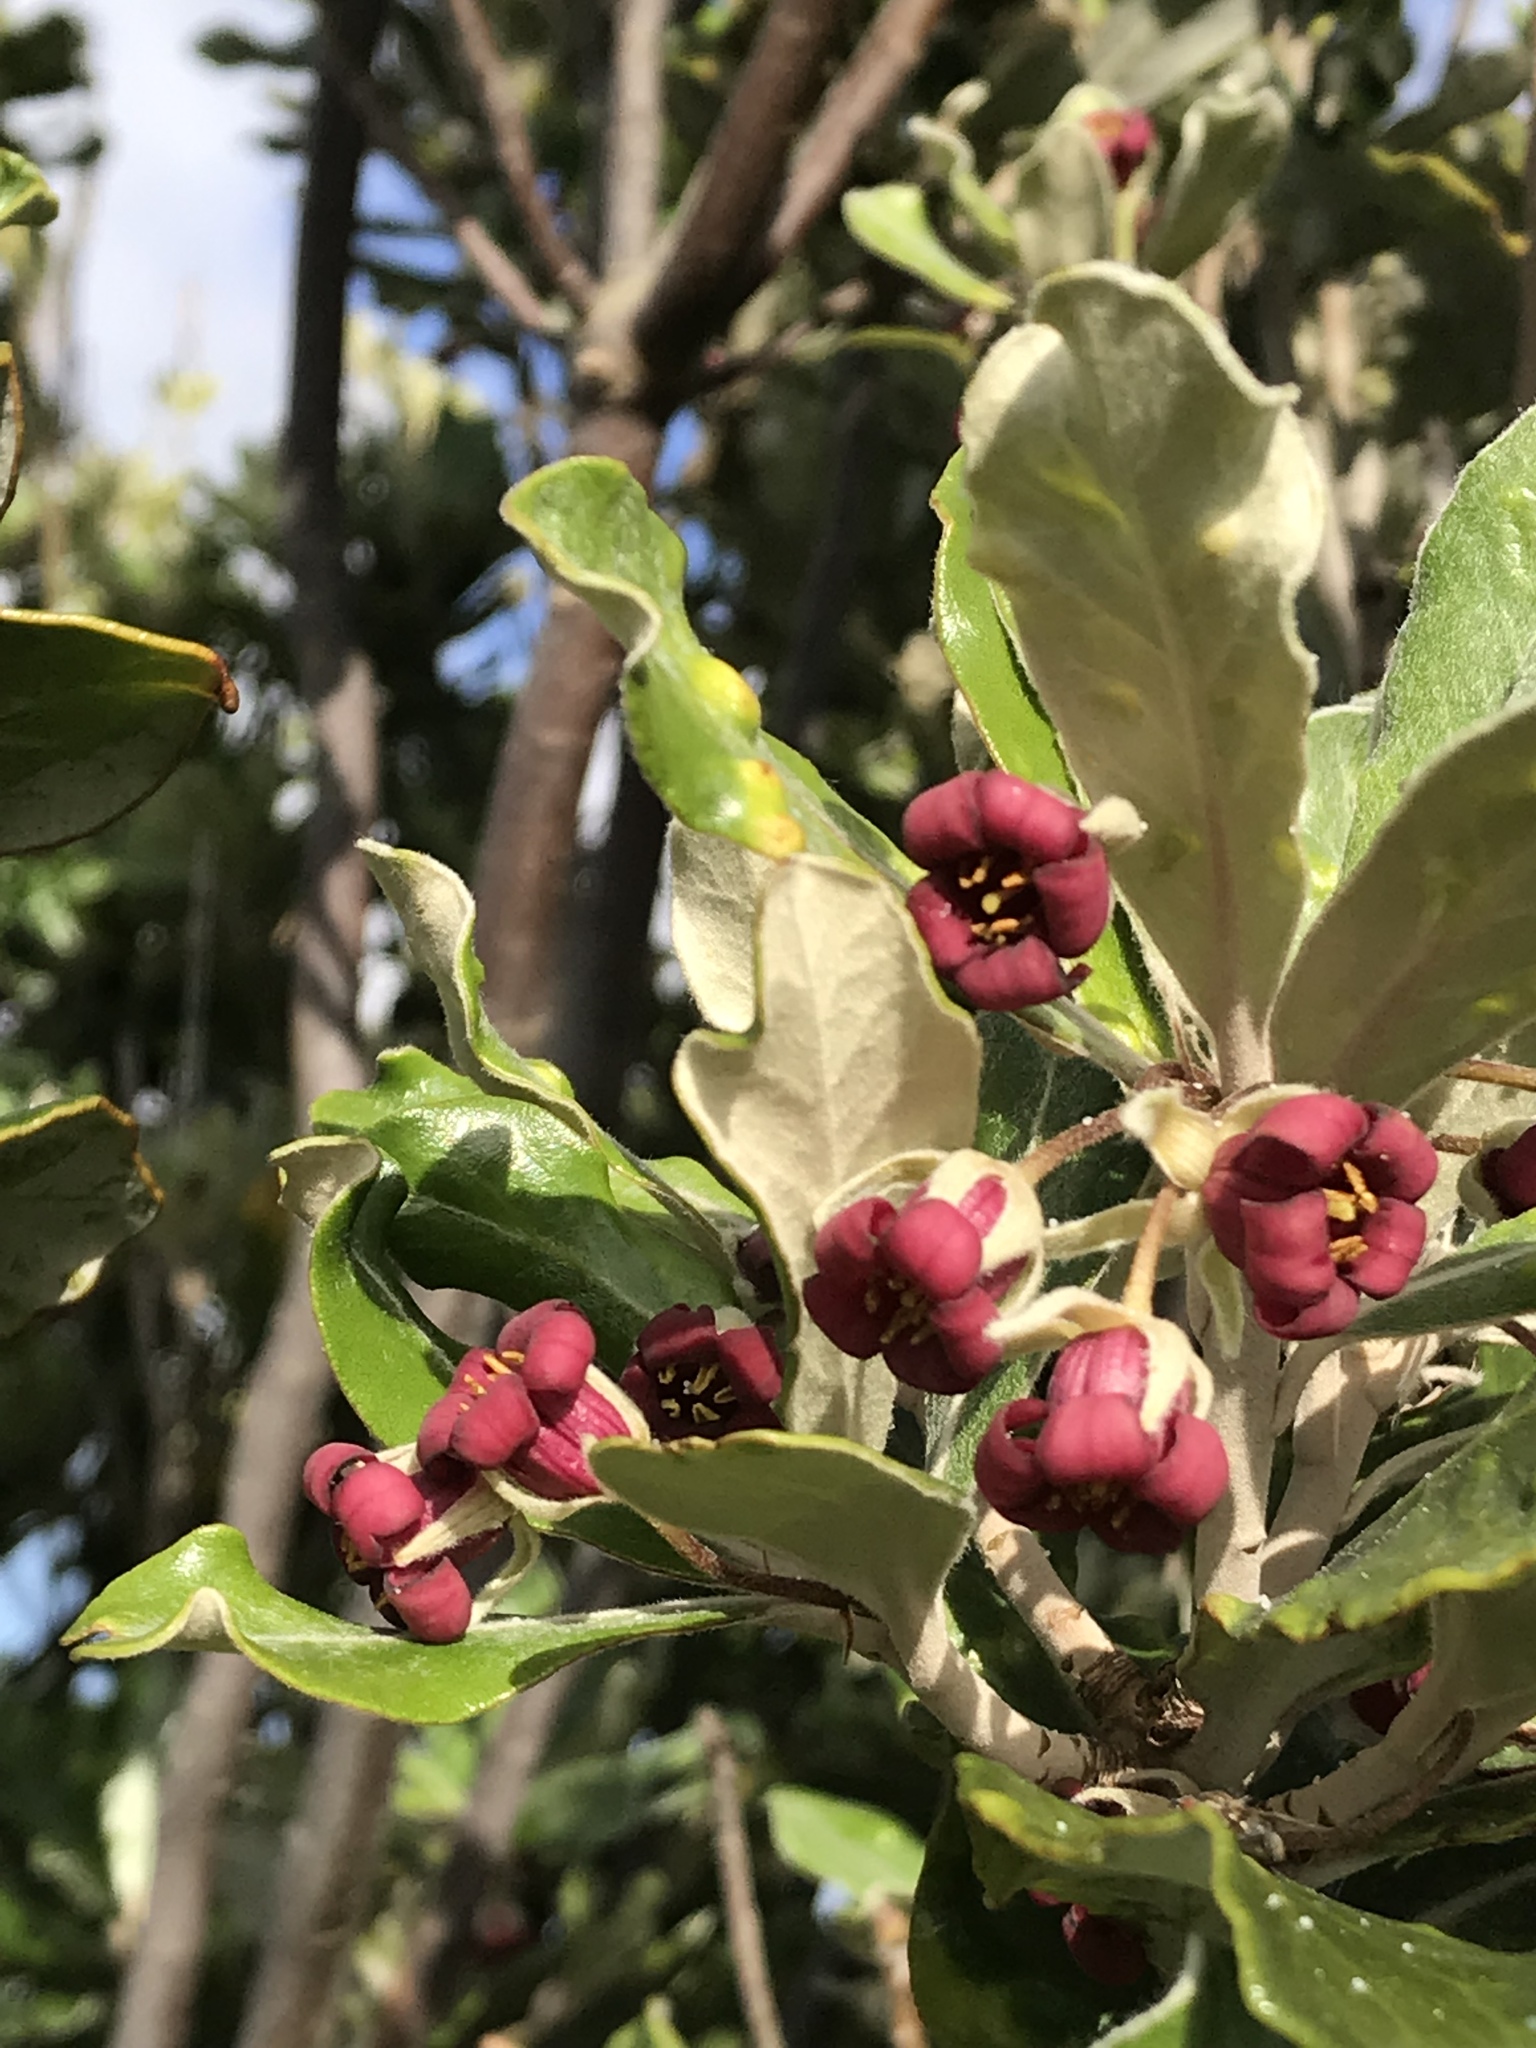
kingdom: Plantae
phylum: Tracheophyta
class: Magnoliopsida
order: Apiales
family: Pittosporaceae
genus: Pittosporum
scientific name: Pittosporum crassifolium
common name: Karo
